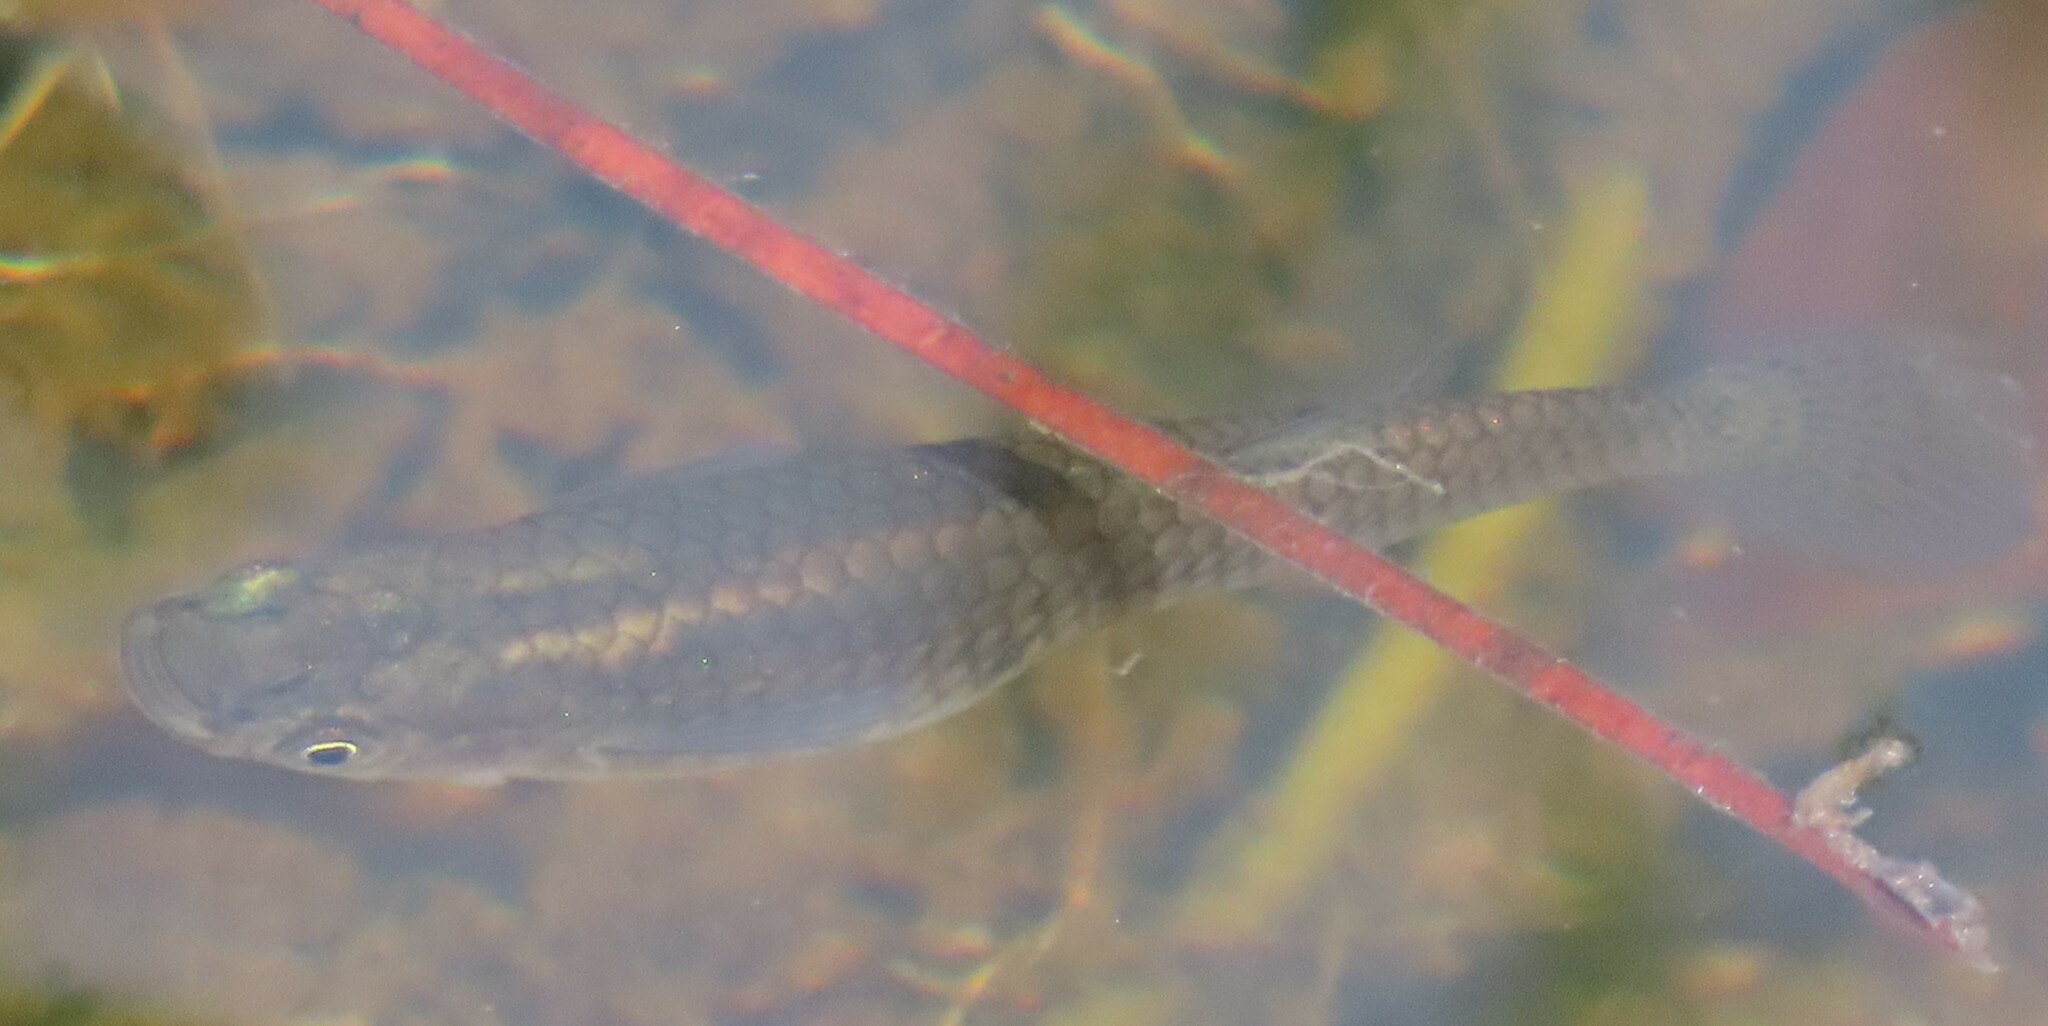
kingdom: Animalia
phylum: Chordata
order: Cyprinodontiformes
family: Poeciliidae
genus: Gambusia
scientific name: Gambusia holbrooki
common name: Eastern mosquitofish
